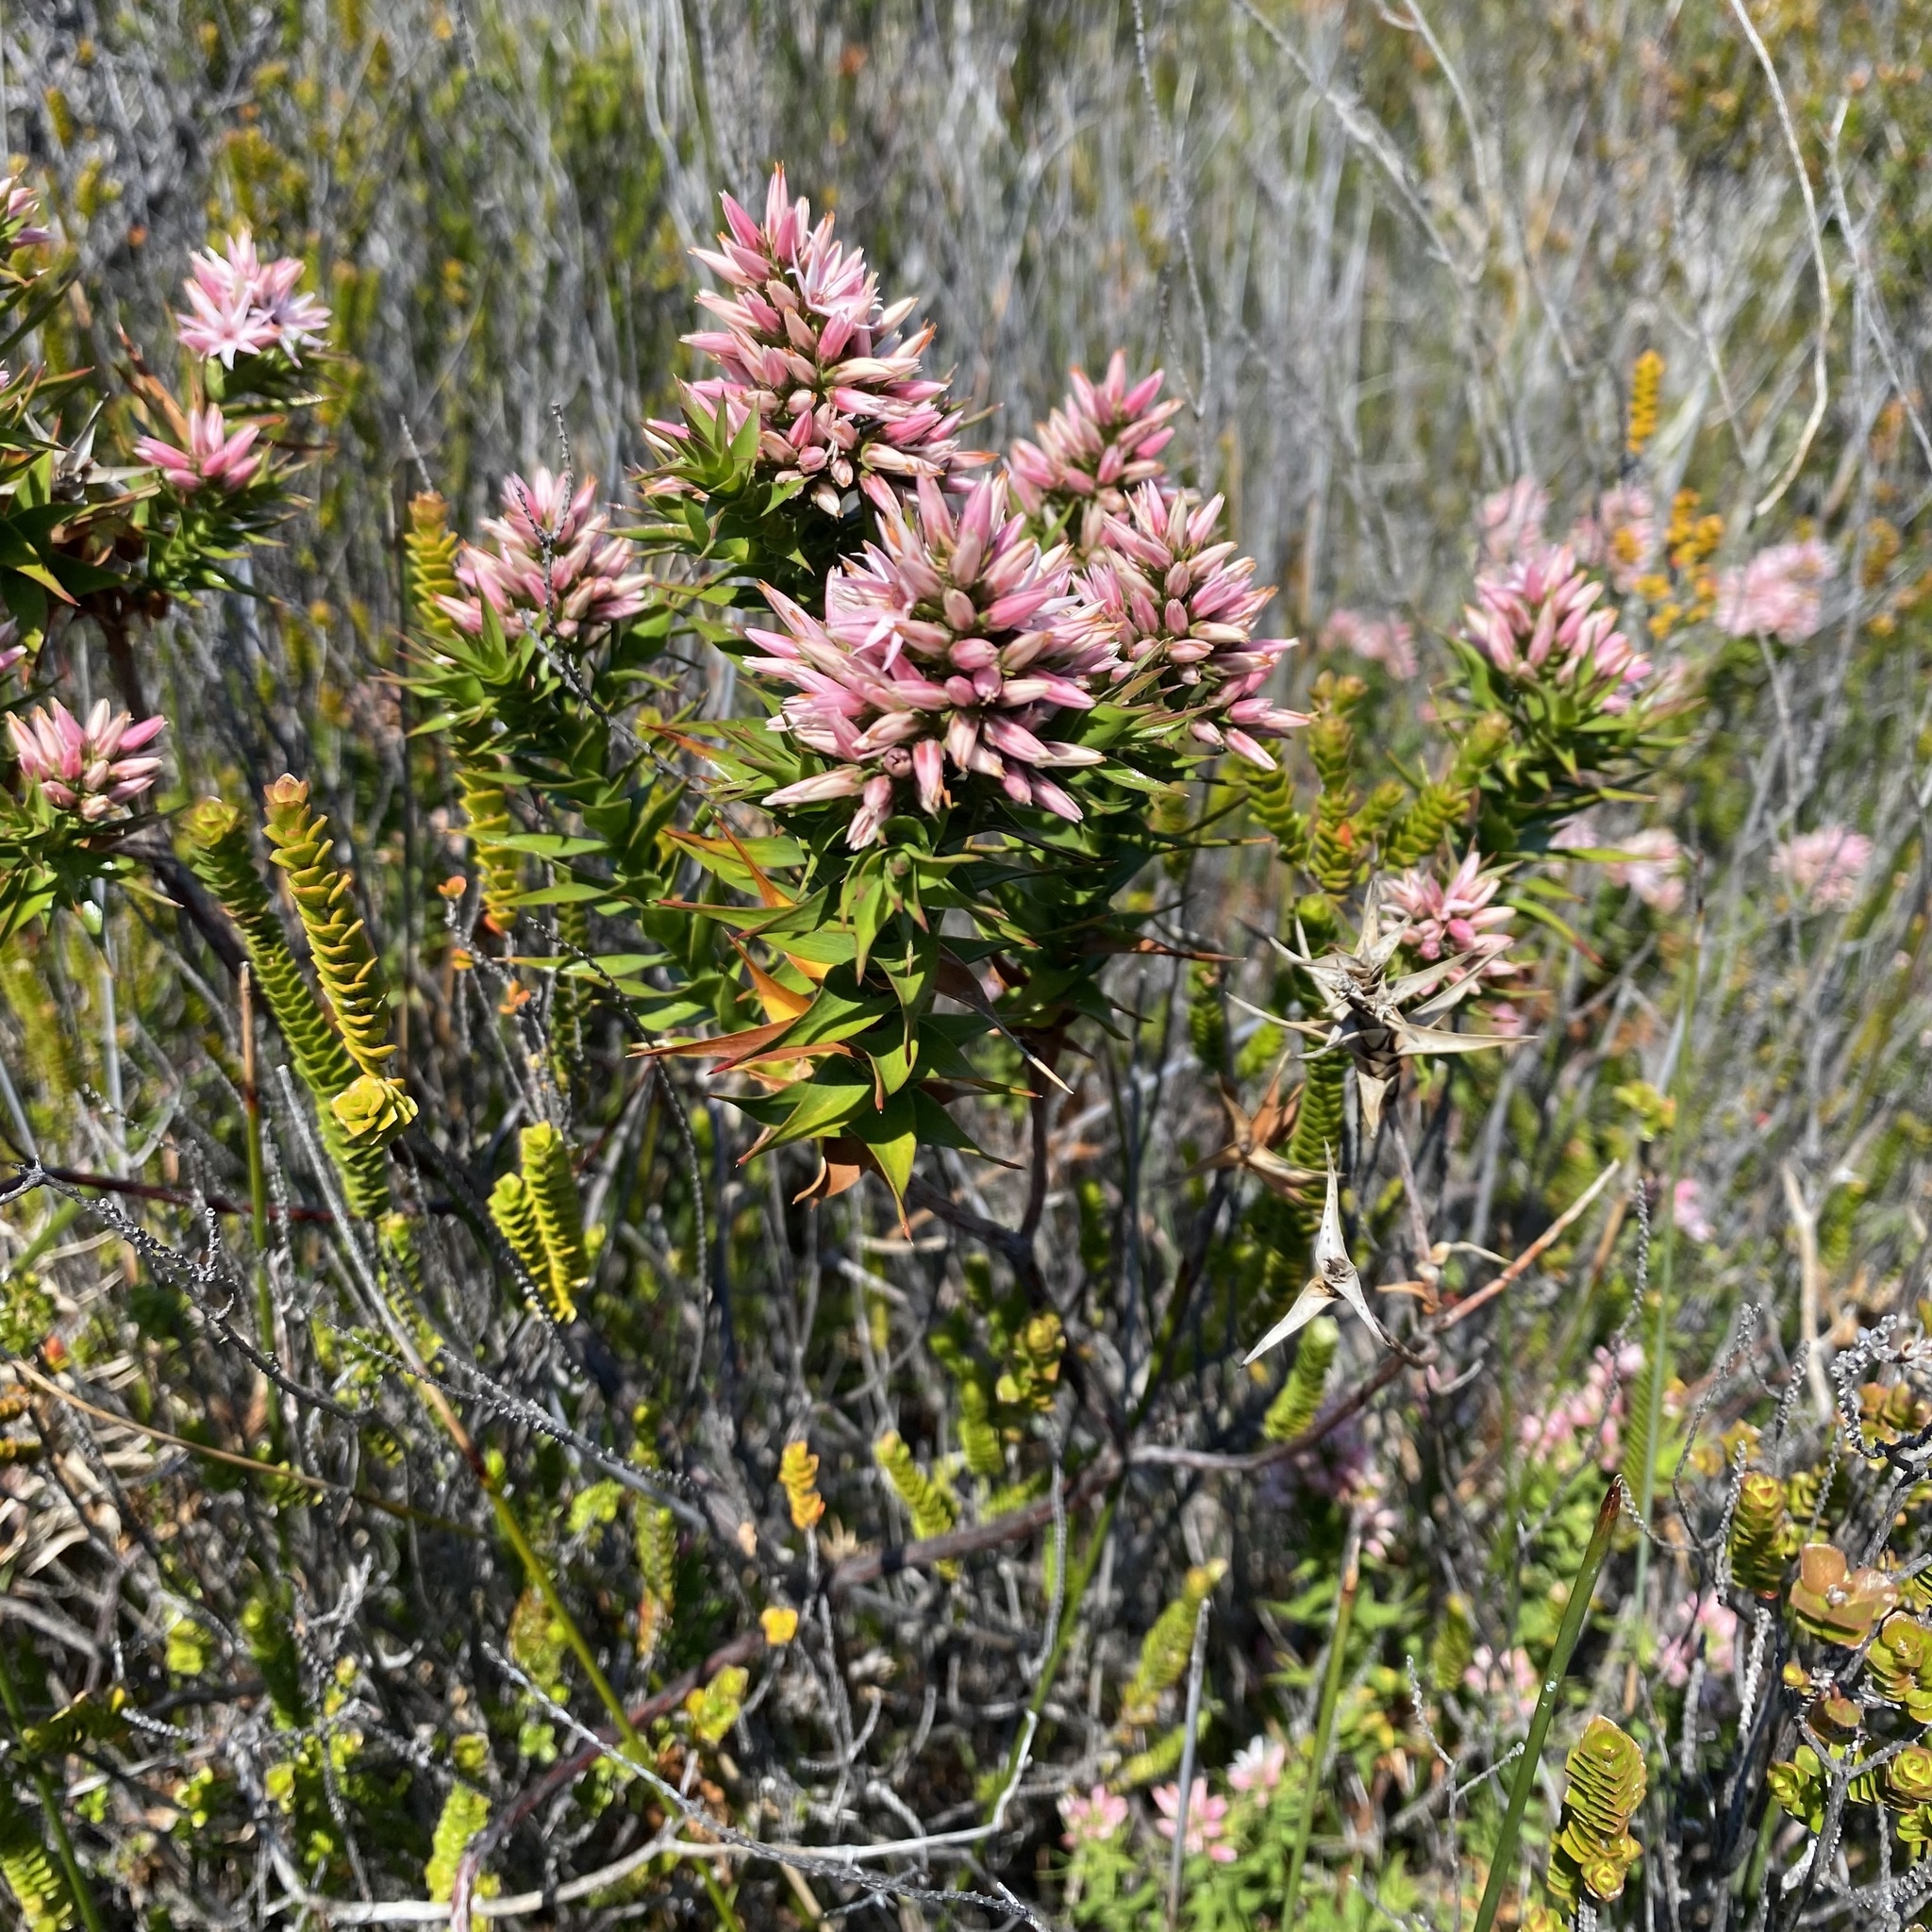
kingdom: Plantae
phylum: Tracheophyta
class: Magnoliopsida
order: Ericales
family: Ericaceae
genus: Sprengelia
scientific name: Sprengelia incarnata
